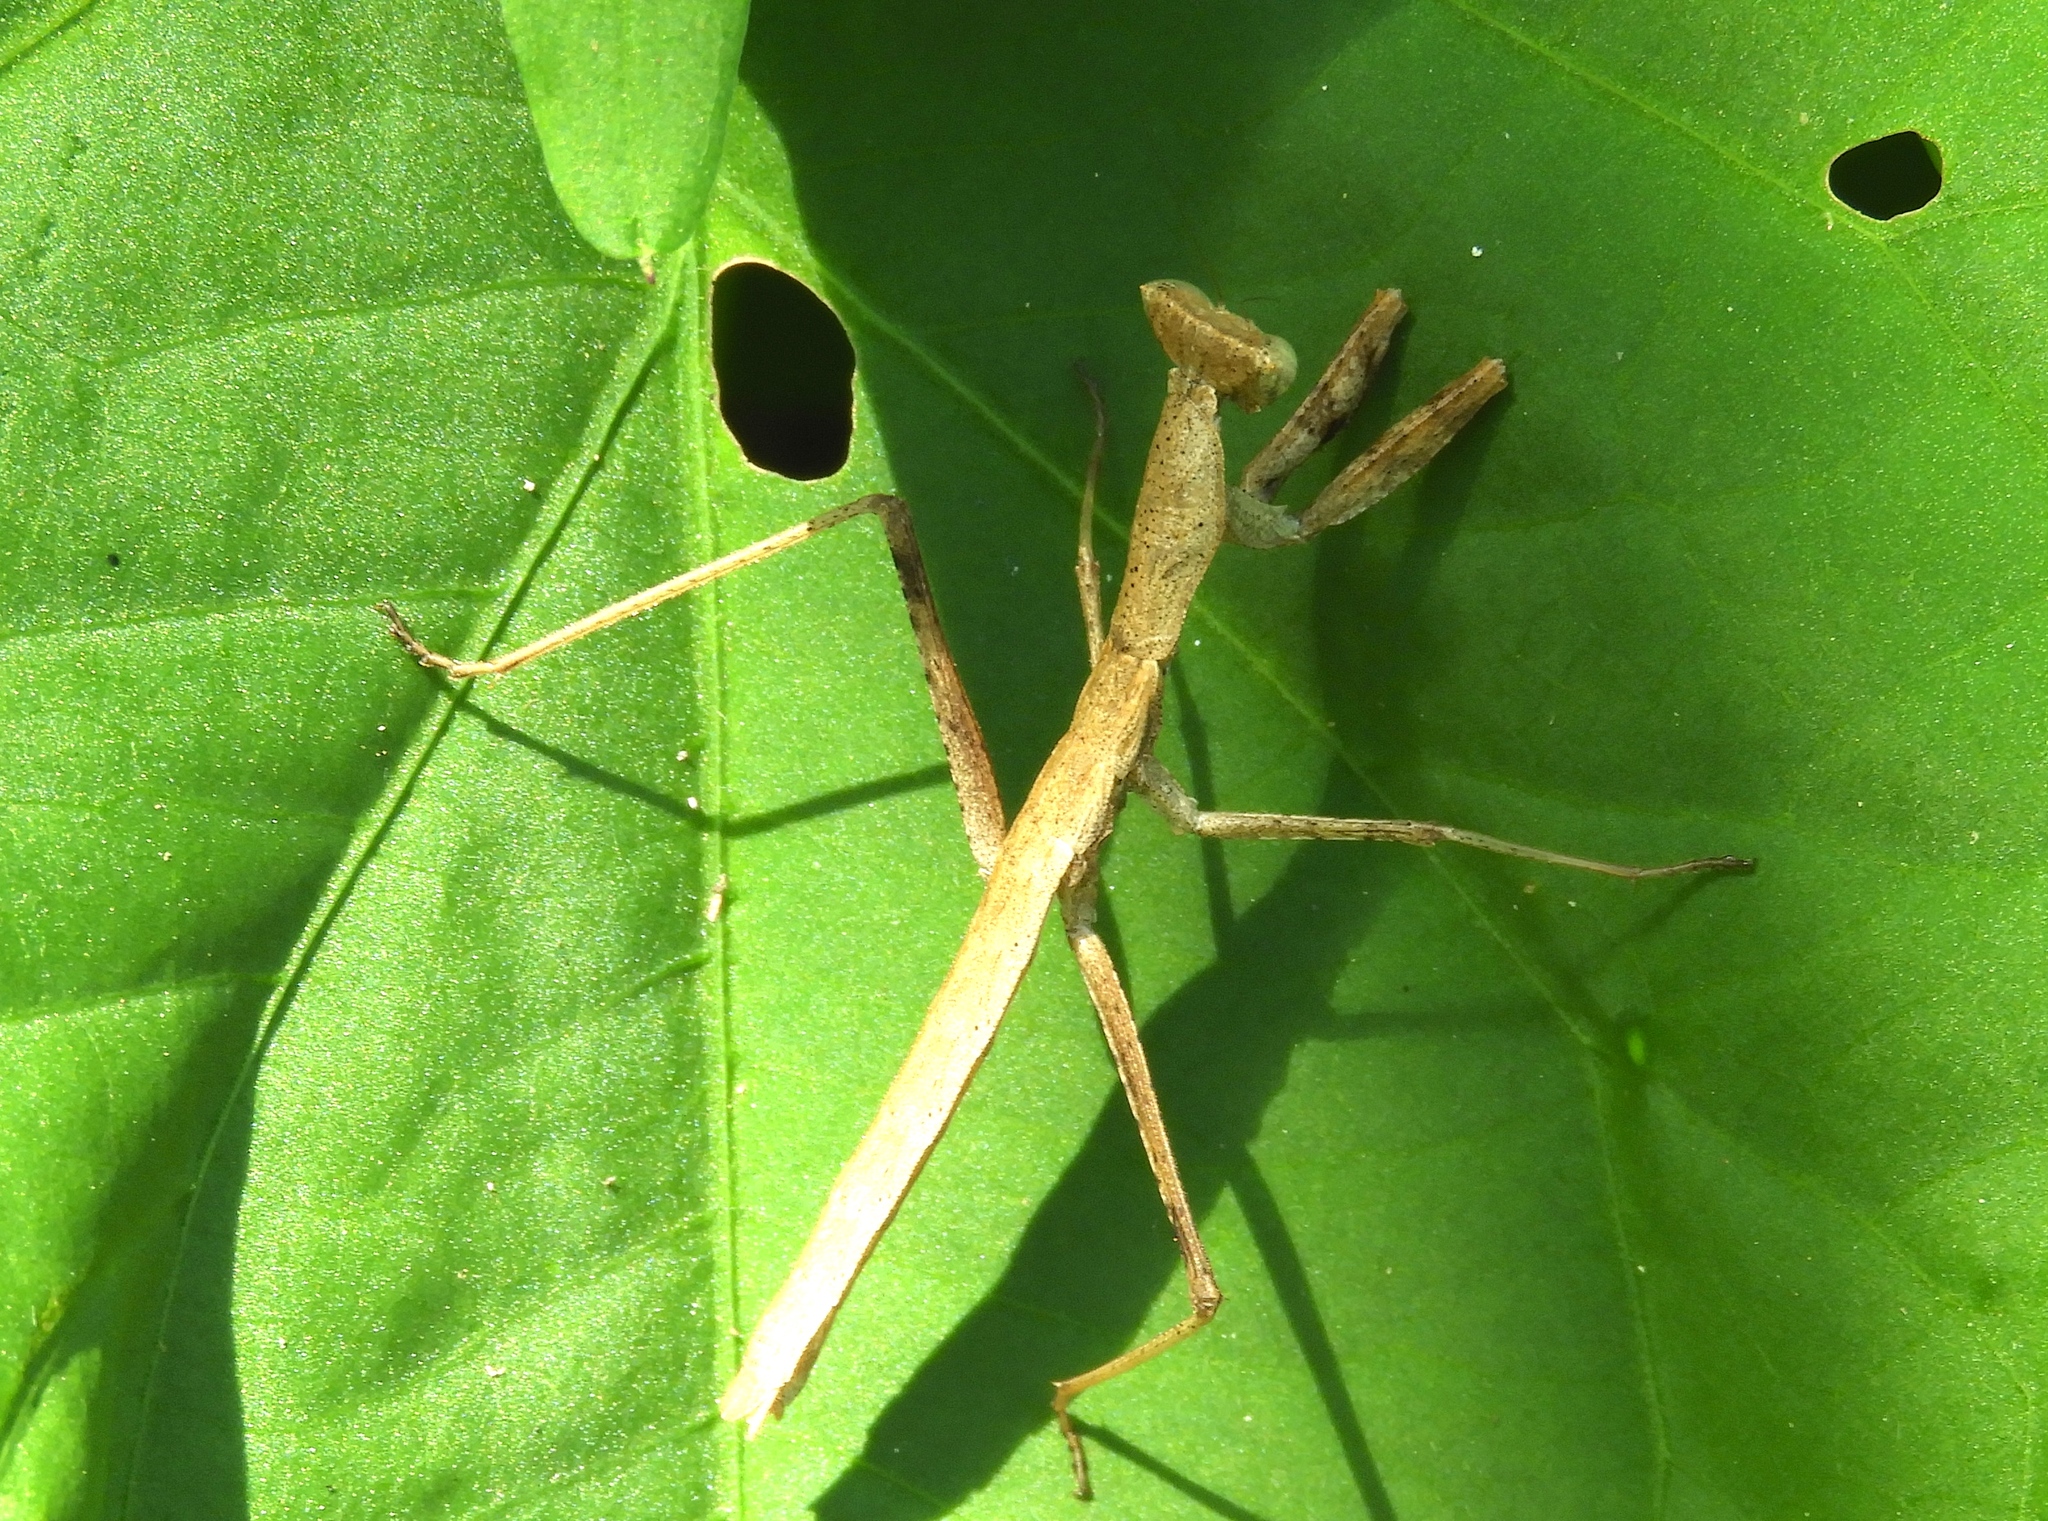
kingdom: Animalia
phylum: Arthropoda
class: Insecta
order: Mantodea
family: Amelidae
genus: Yersinia
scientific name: Yersinia mexicana
